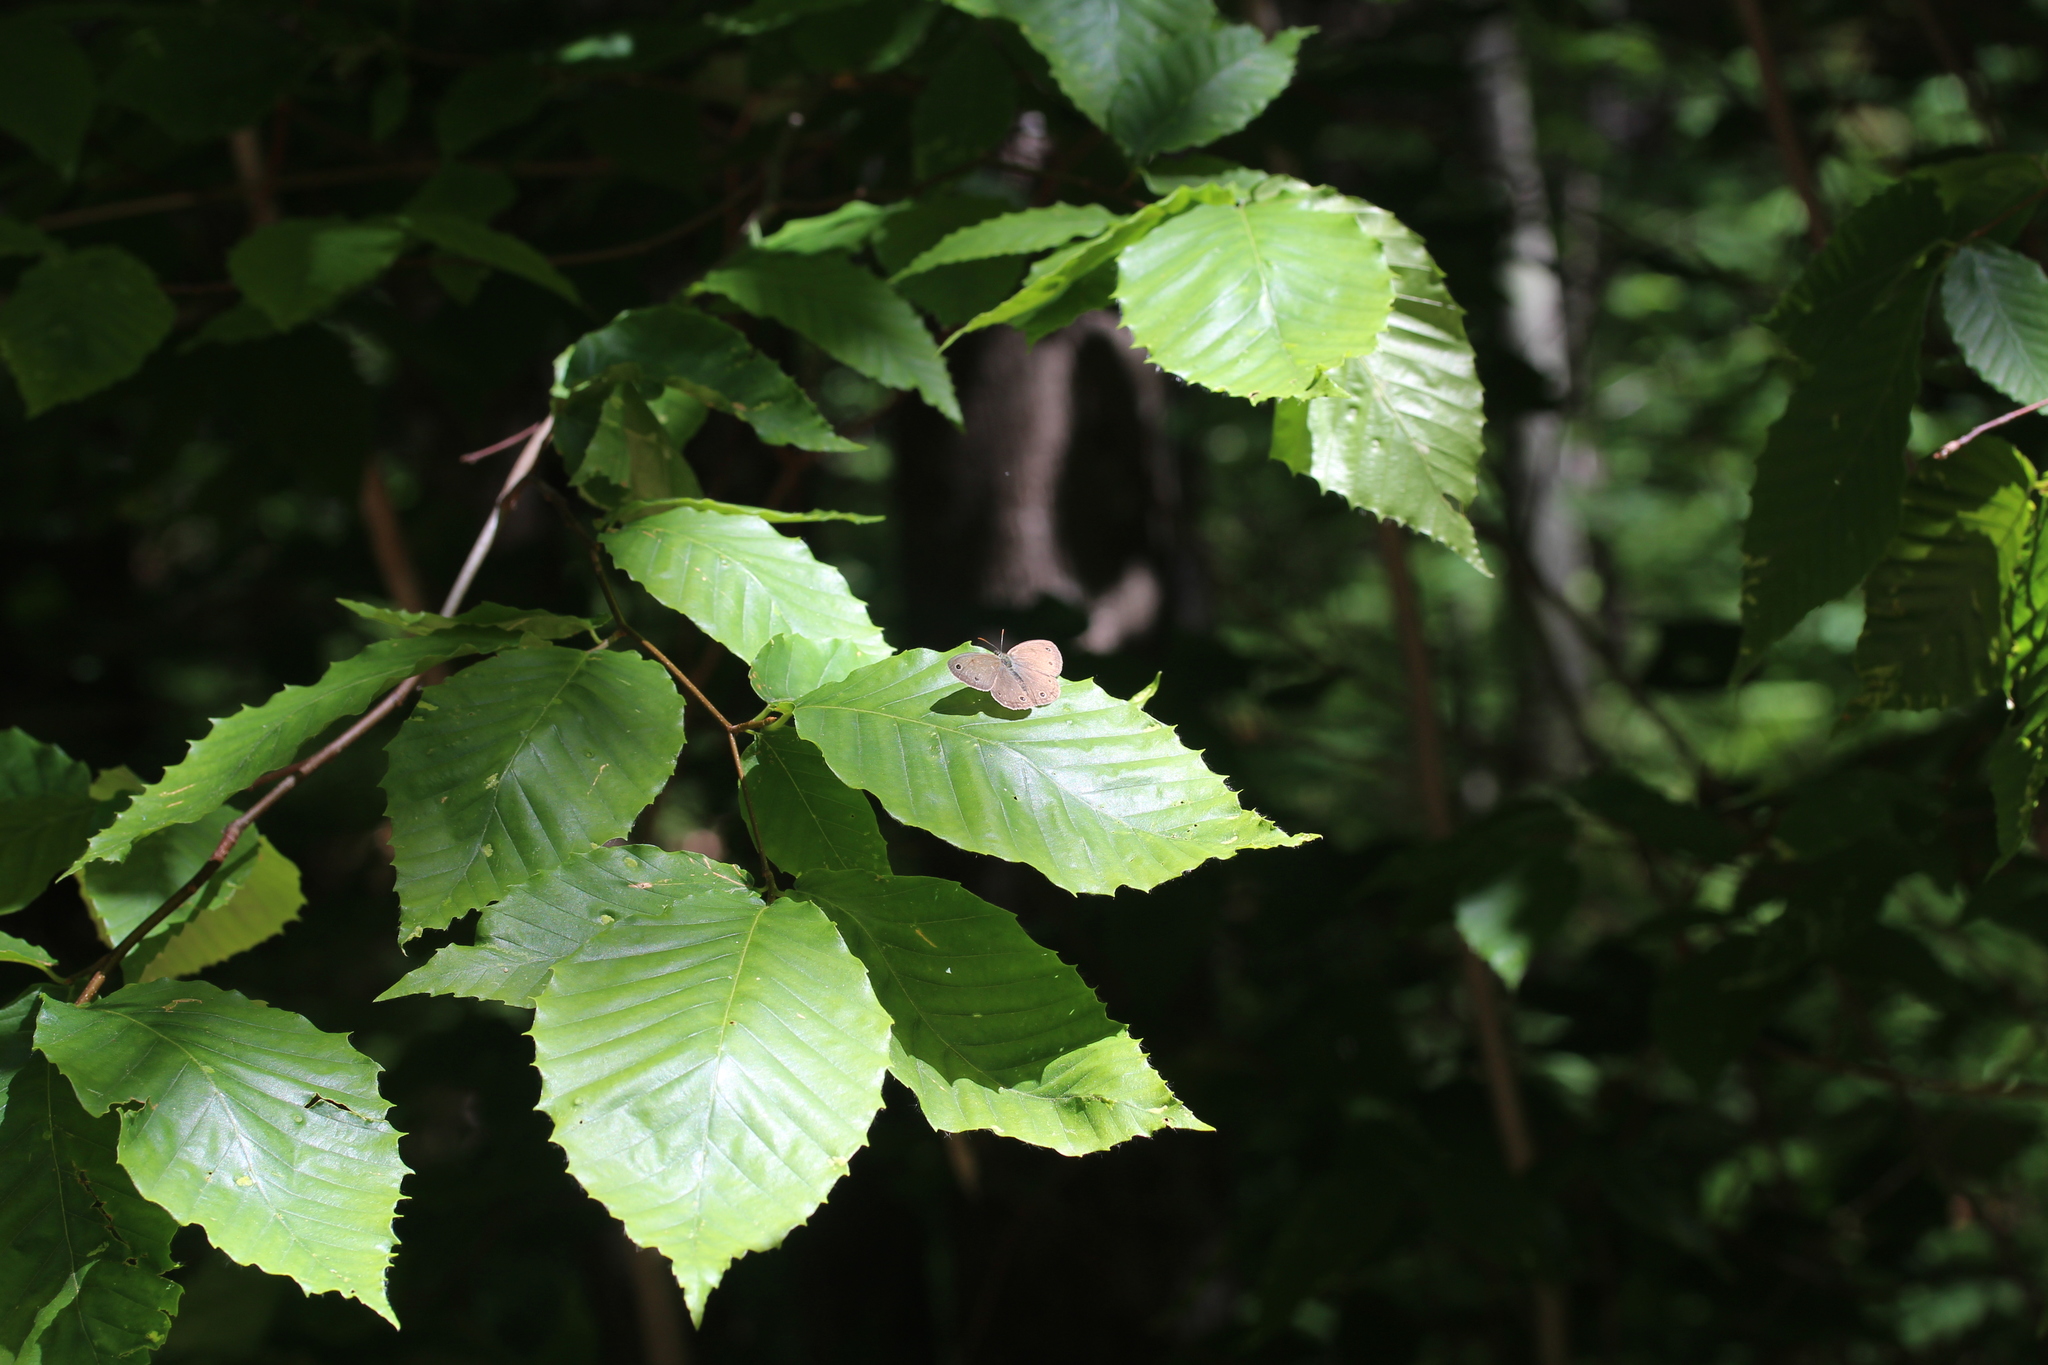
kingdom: Animalia
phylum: Arthropoda
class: Insecta
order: Lepidoptera
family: Nymphalidae
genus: Euptychia
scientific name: Euptychia cymela
